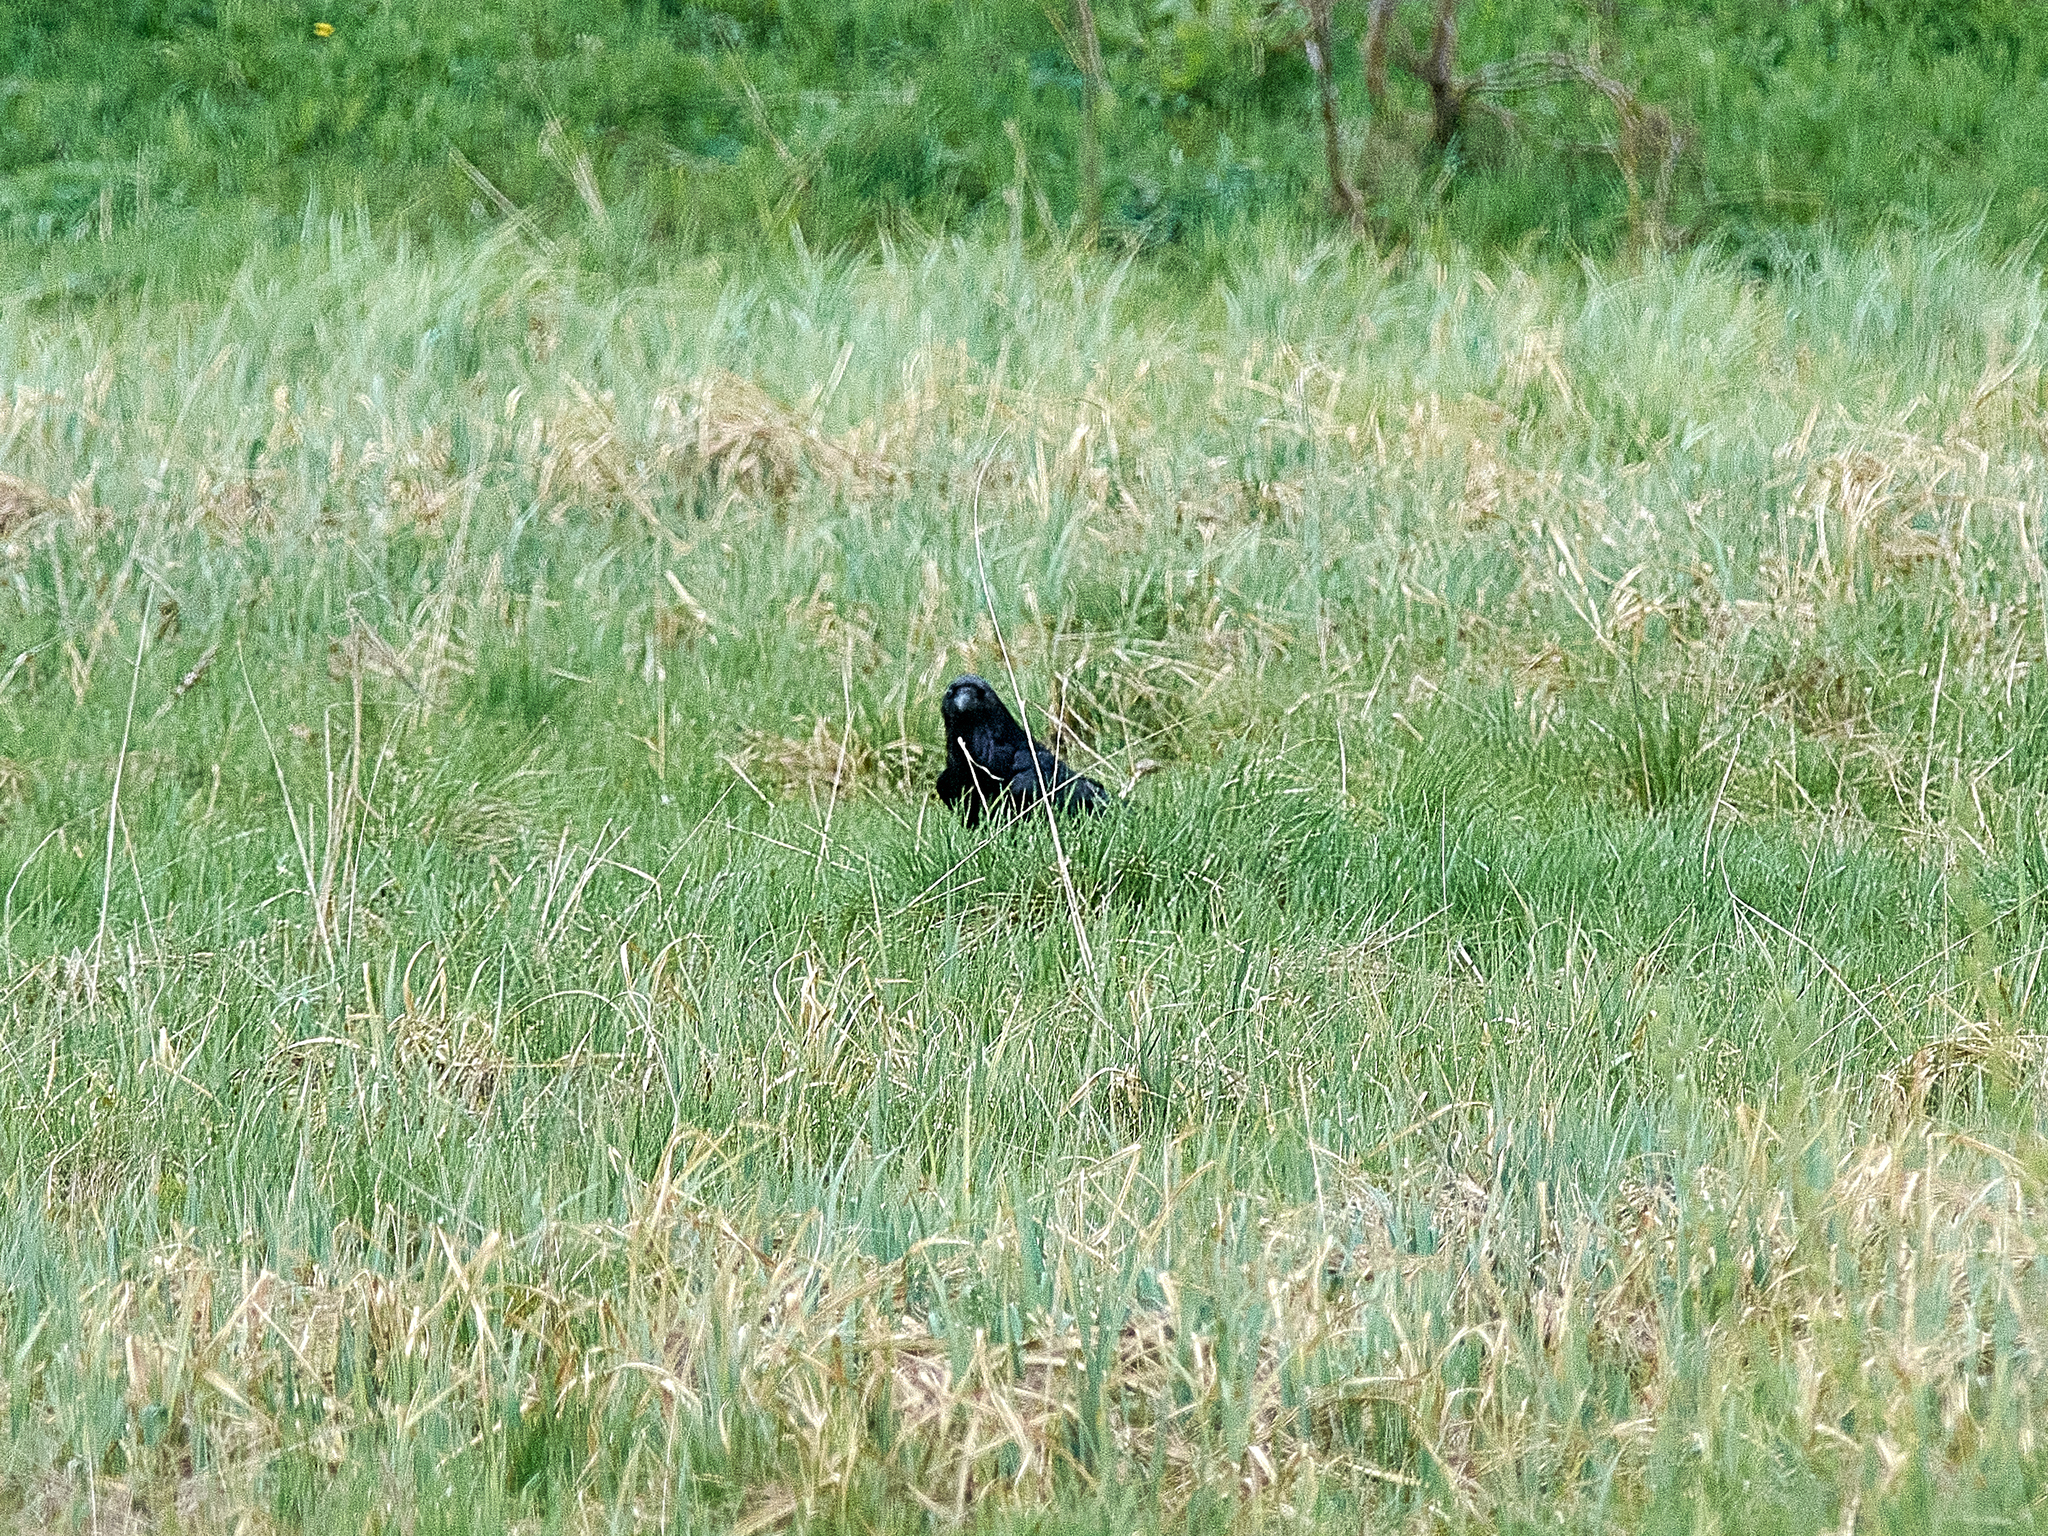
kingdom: Animalia
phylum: Chordata
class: Aves
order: Passeriformes
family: Corvidae
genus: Corvus
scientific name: Corvus corax
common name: Common raven
